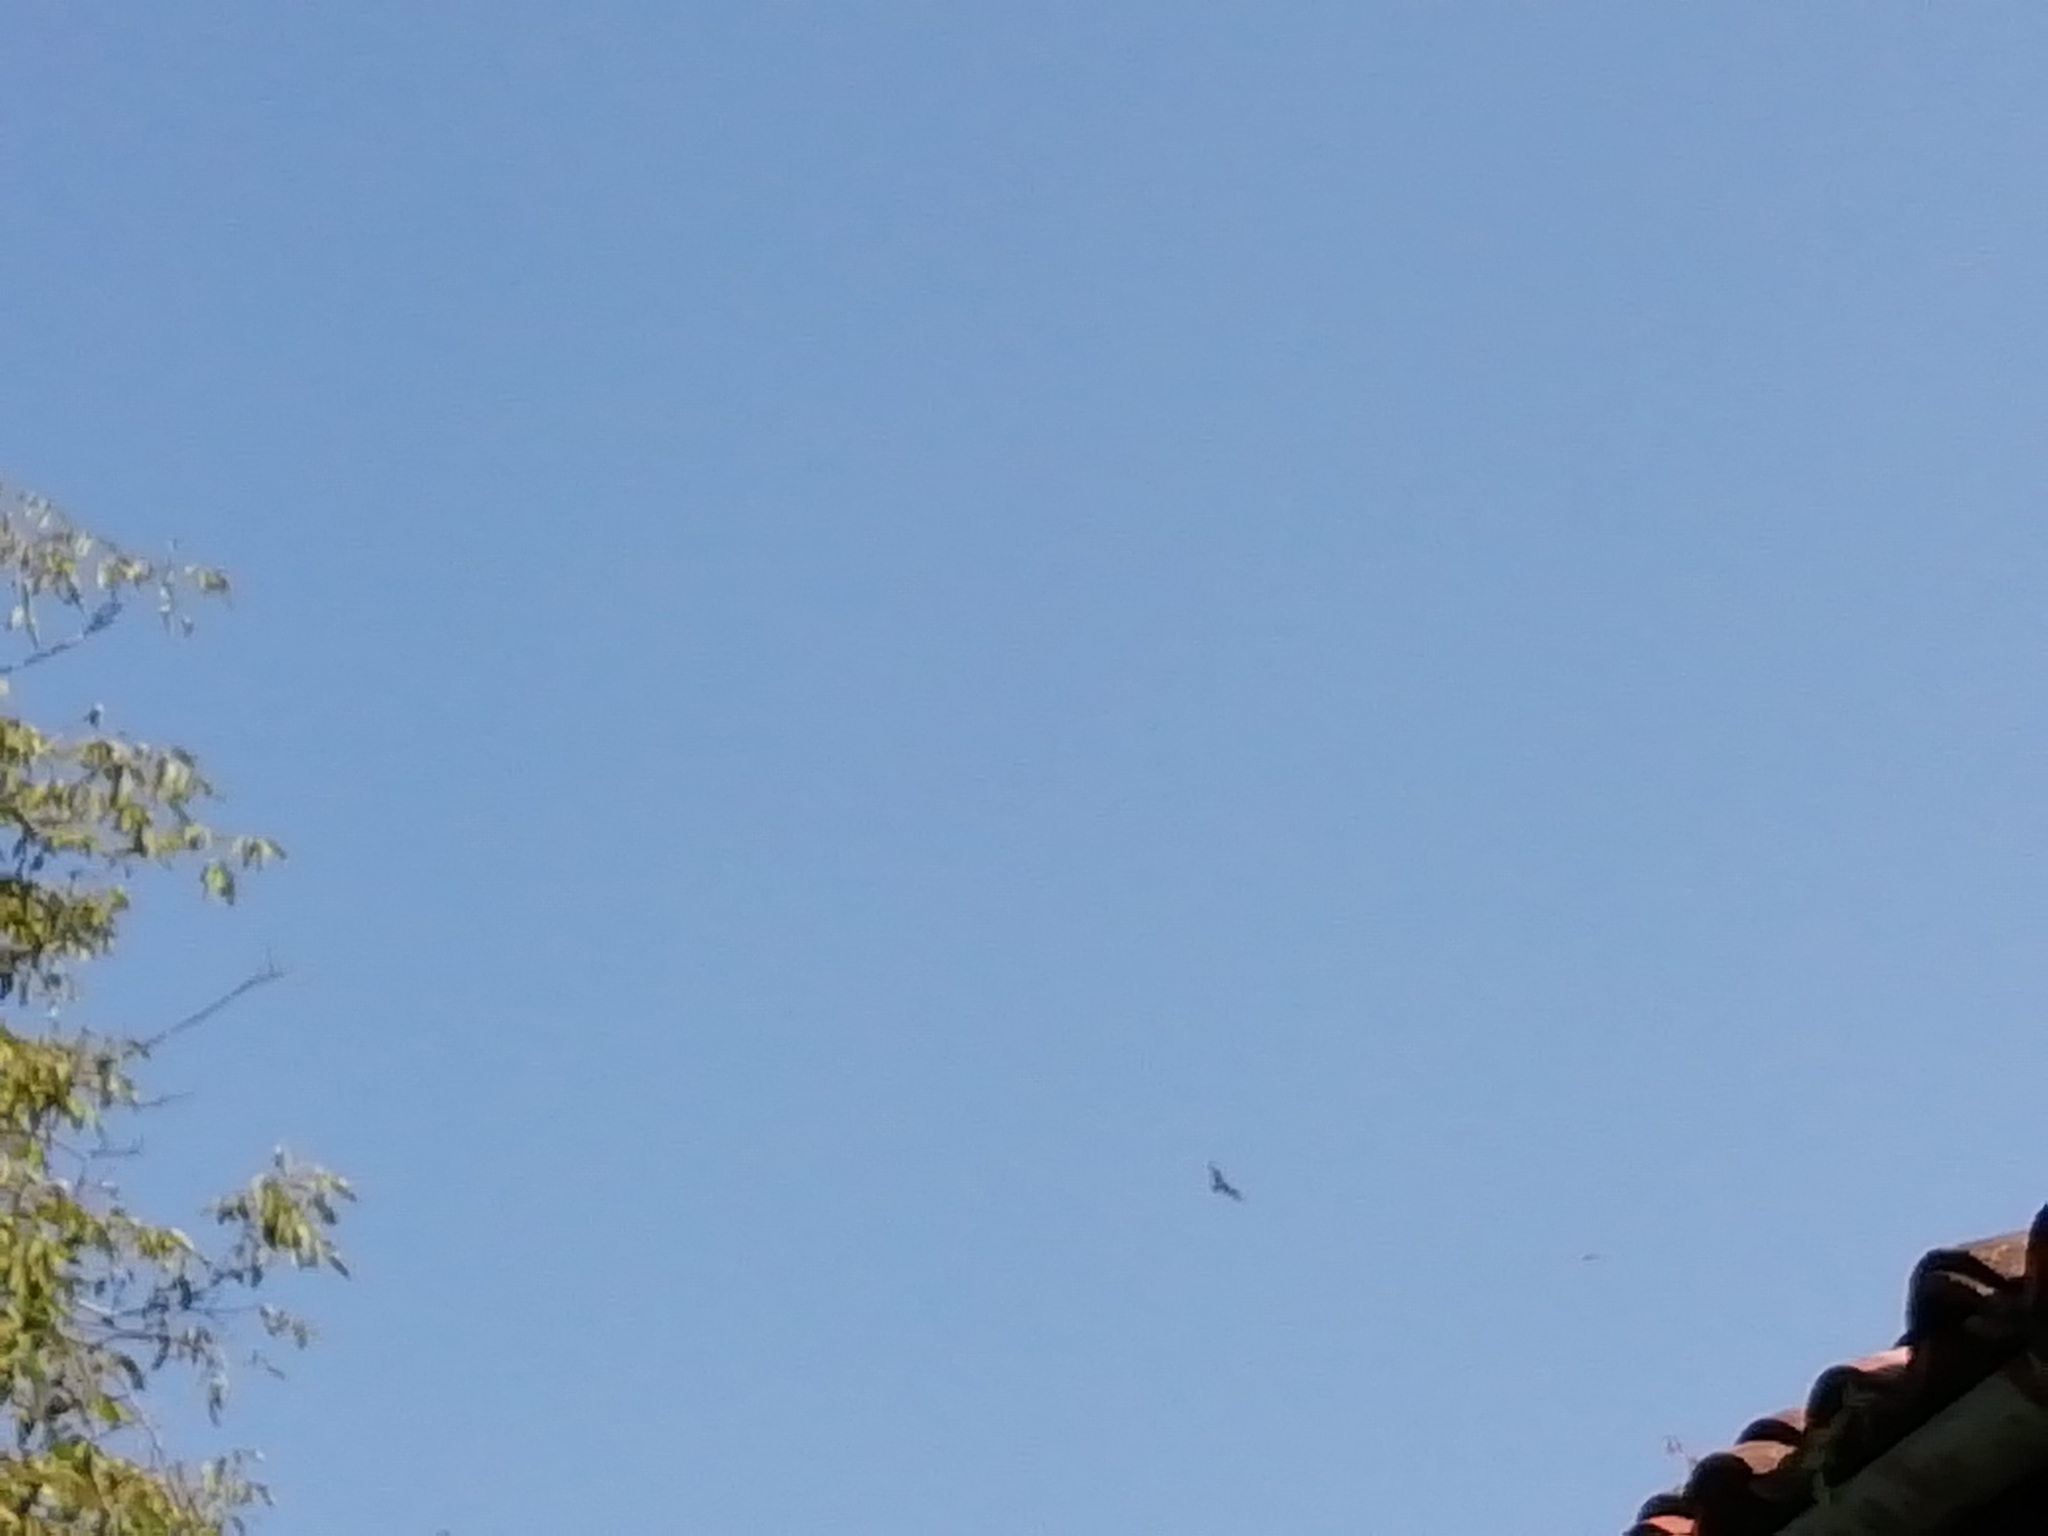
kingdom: Animalia
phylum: Chordata
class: Aves
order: Accipitriformes
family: Accipitridae
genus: Pernis
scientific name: Pernis apivorus
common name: European honey buzzard
